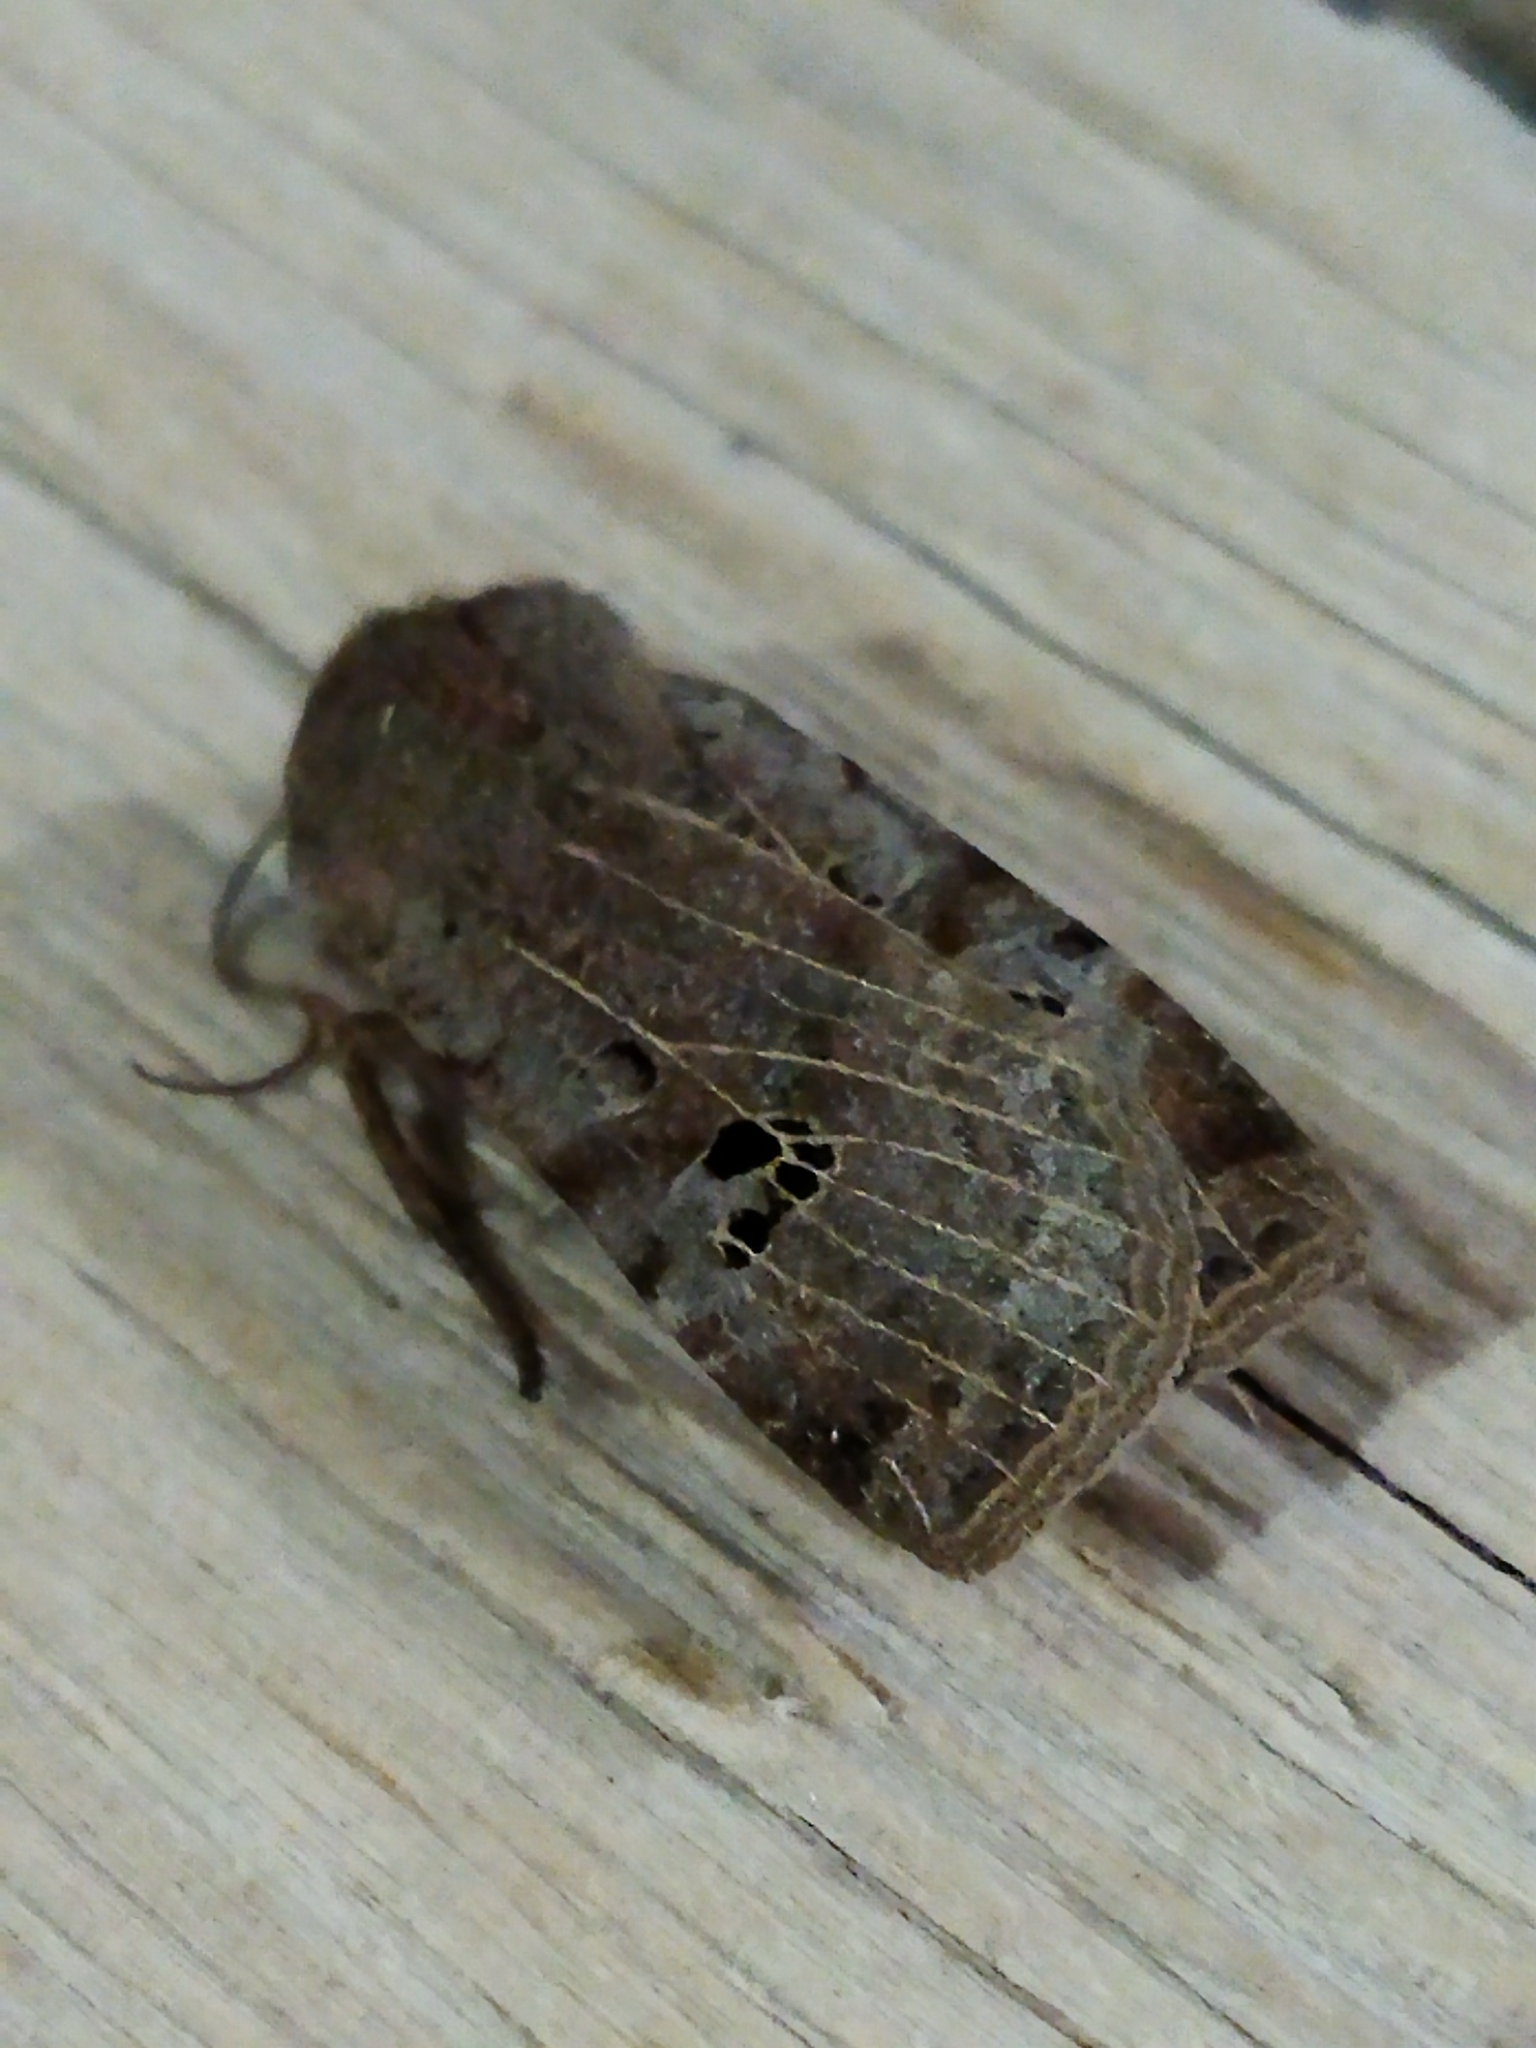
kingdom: Animalia
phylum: Arthropoda
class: Insecta
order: Lepidoptera
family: Noctuidae
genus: Conistra
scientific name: Conistra rubiginosa
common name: Black-spotted chestnut
